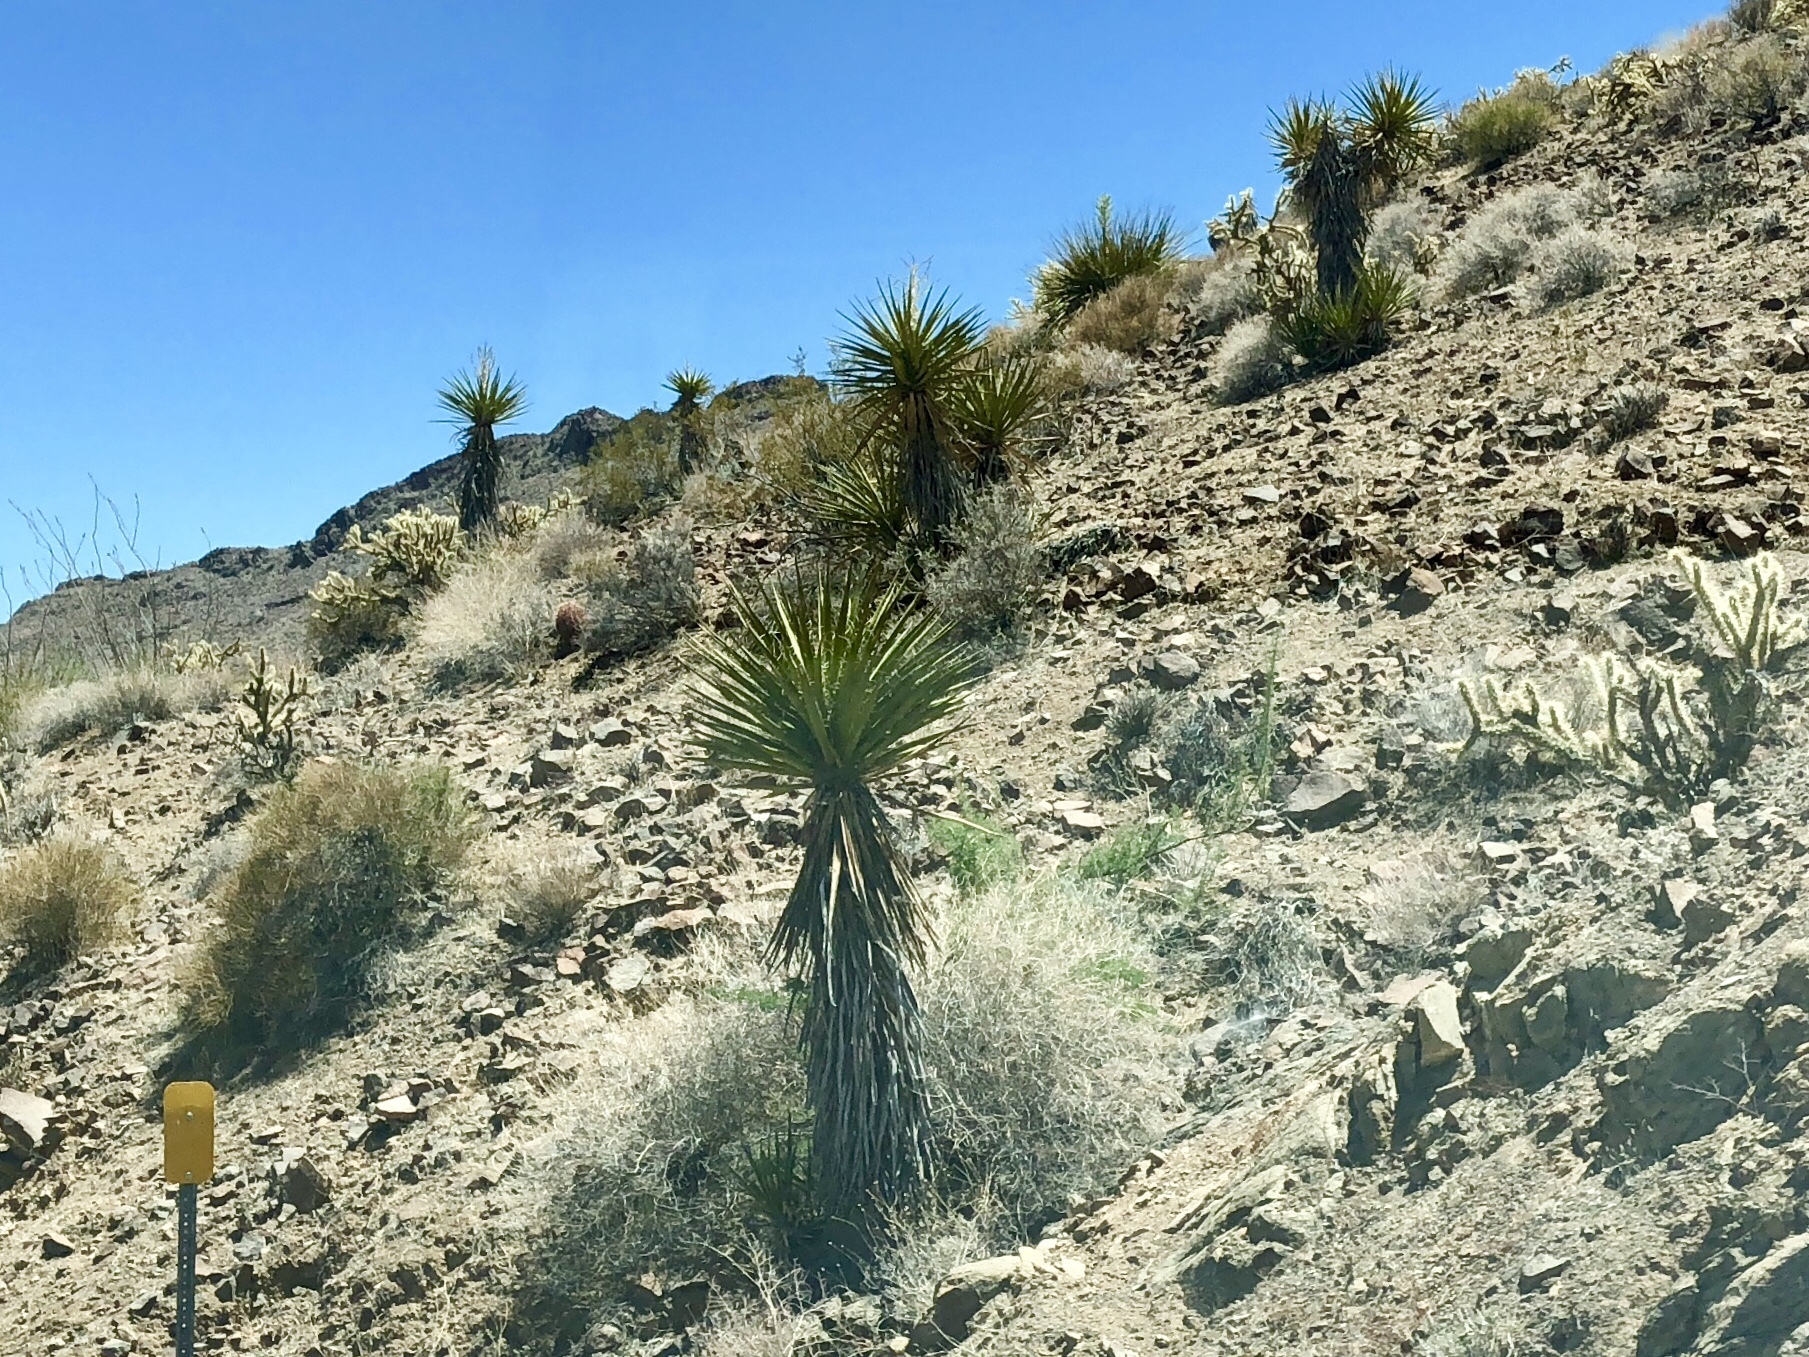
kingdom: Plantae
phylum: Tracheophyta
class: Liliopsida
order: Asparagales
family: Asparagaceae
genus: Yucca
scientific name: Yucca schidigera
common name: Mojave yucca
